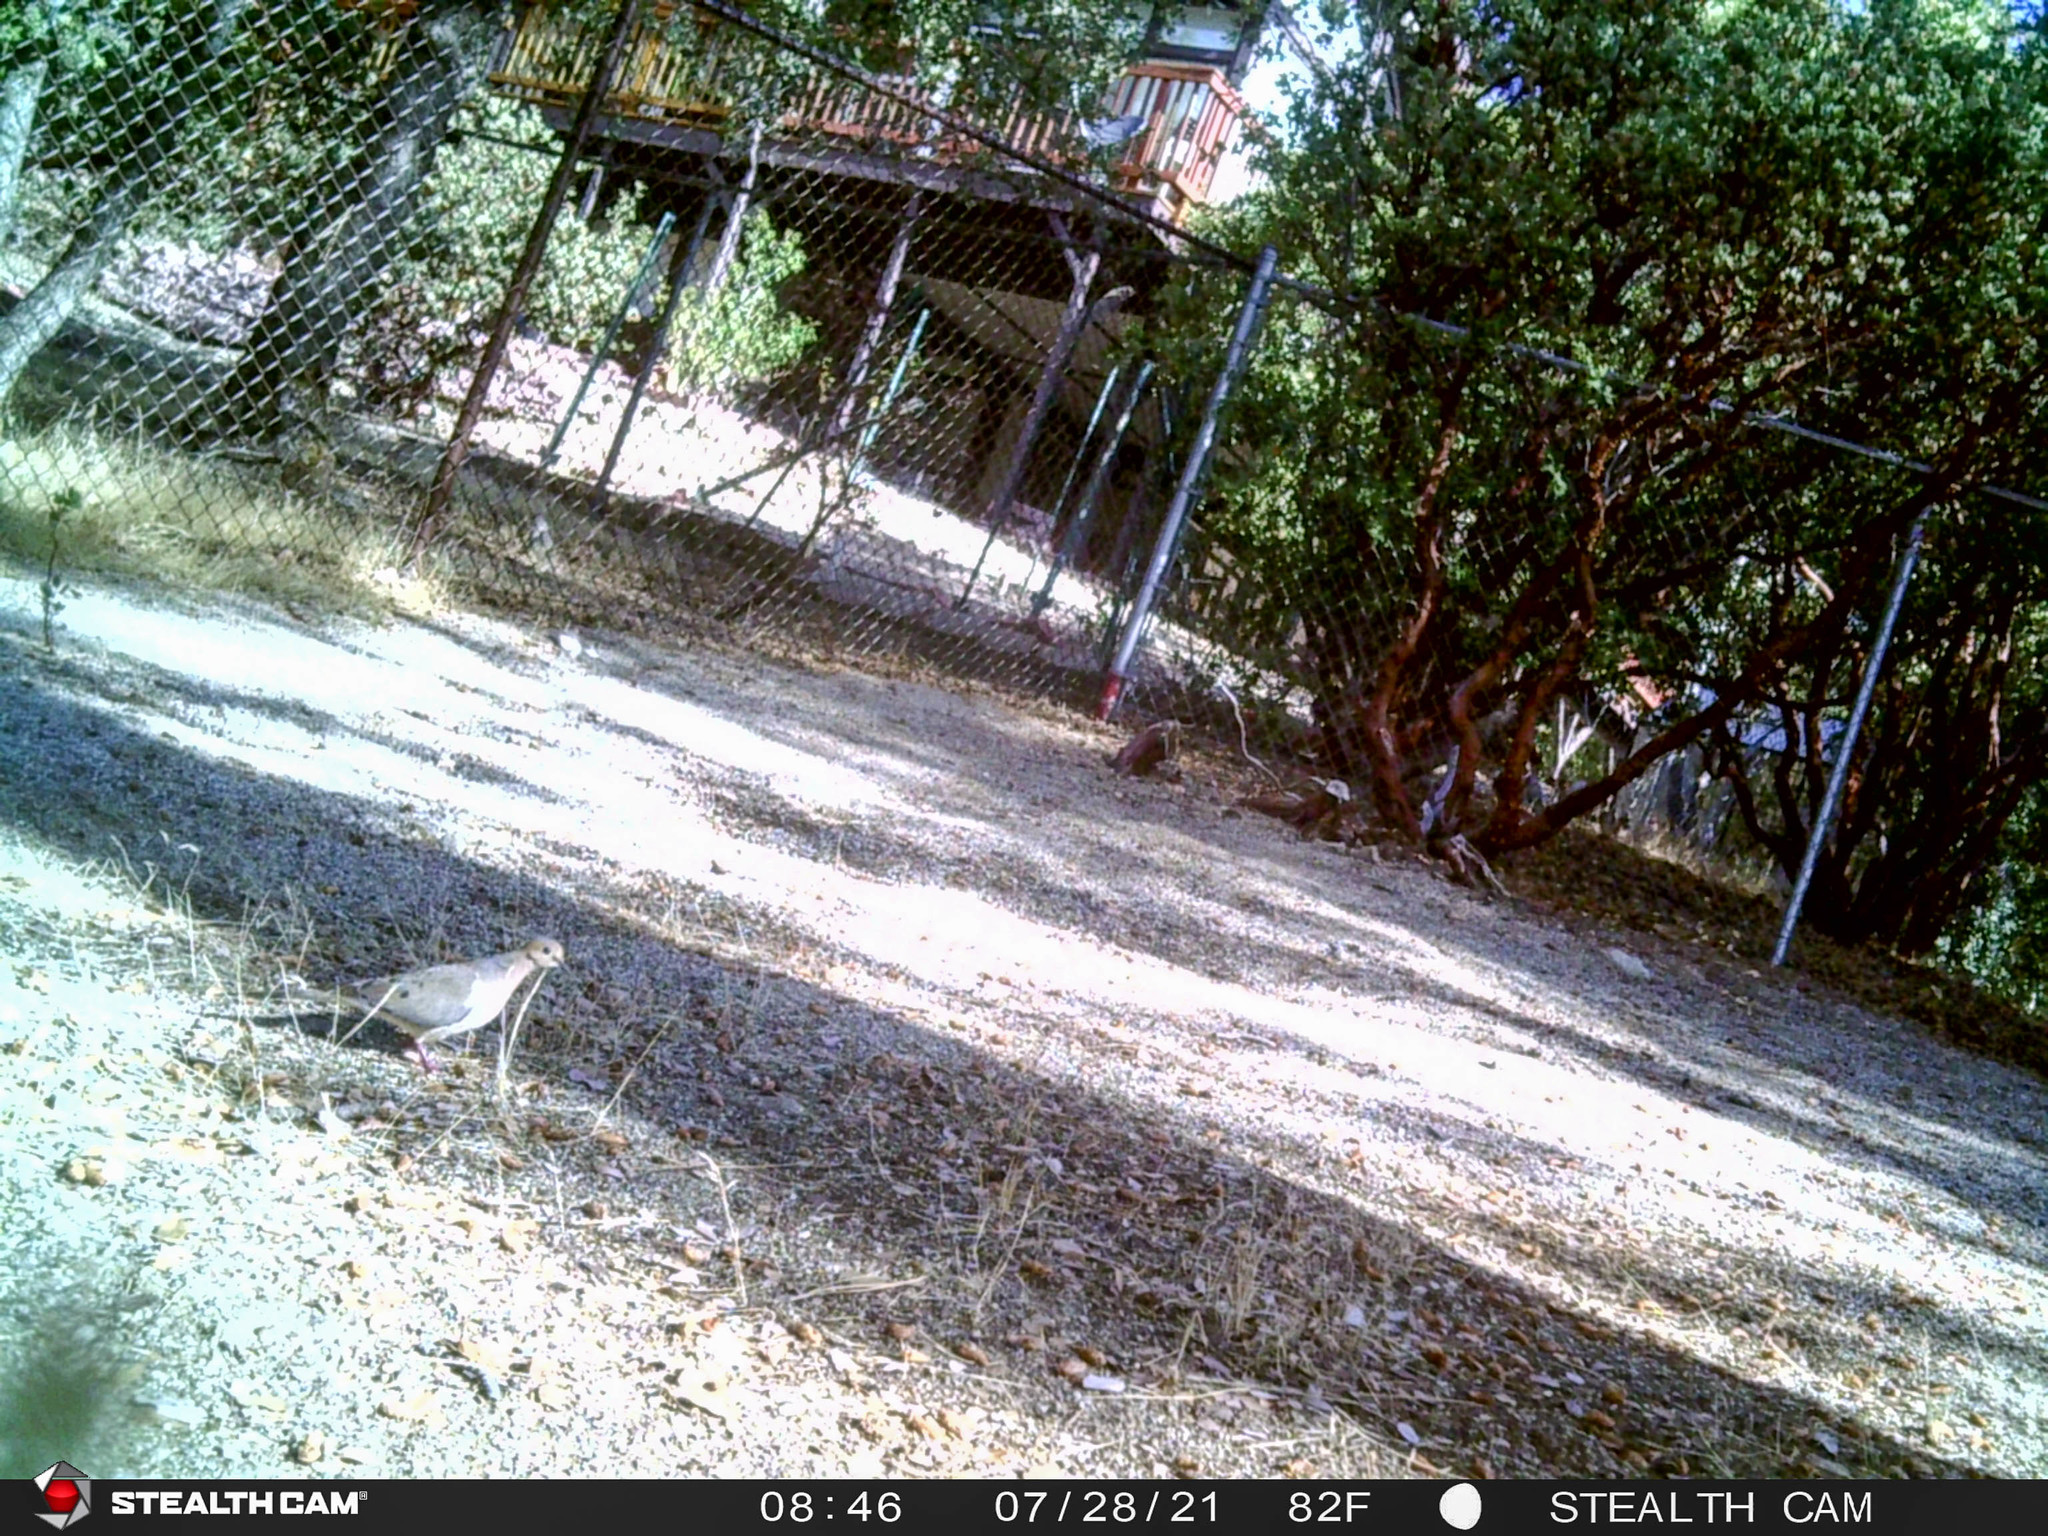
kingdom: Animalia
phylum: Chordata
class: Aves
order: Columbiformes
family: Columbidae
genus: Zenaida
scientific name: Zenaida macroura
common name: Mourning dove
